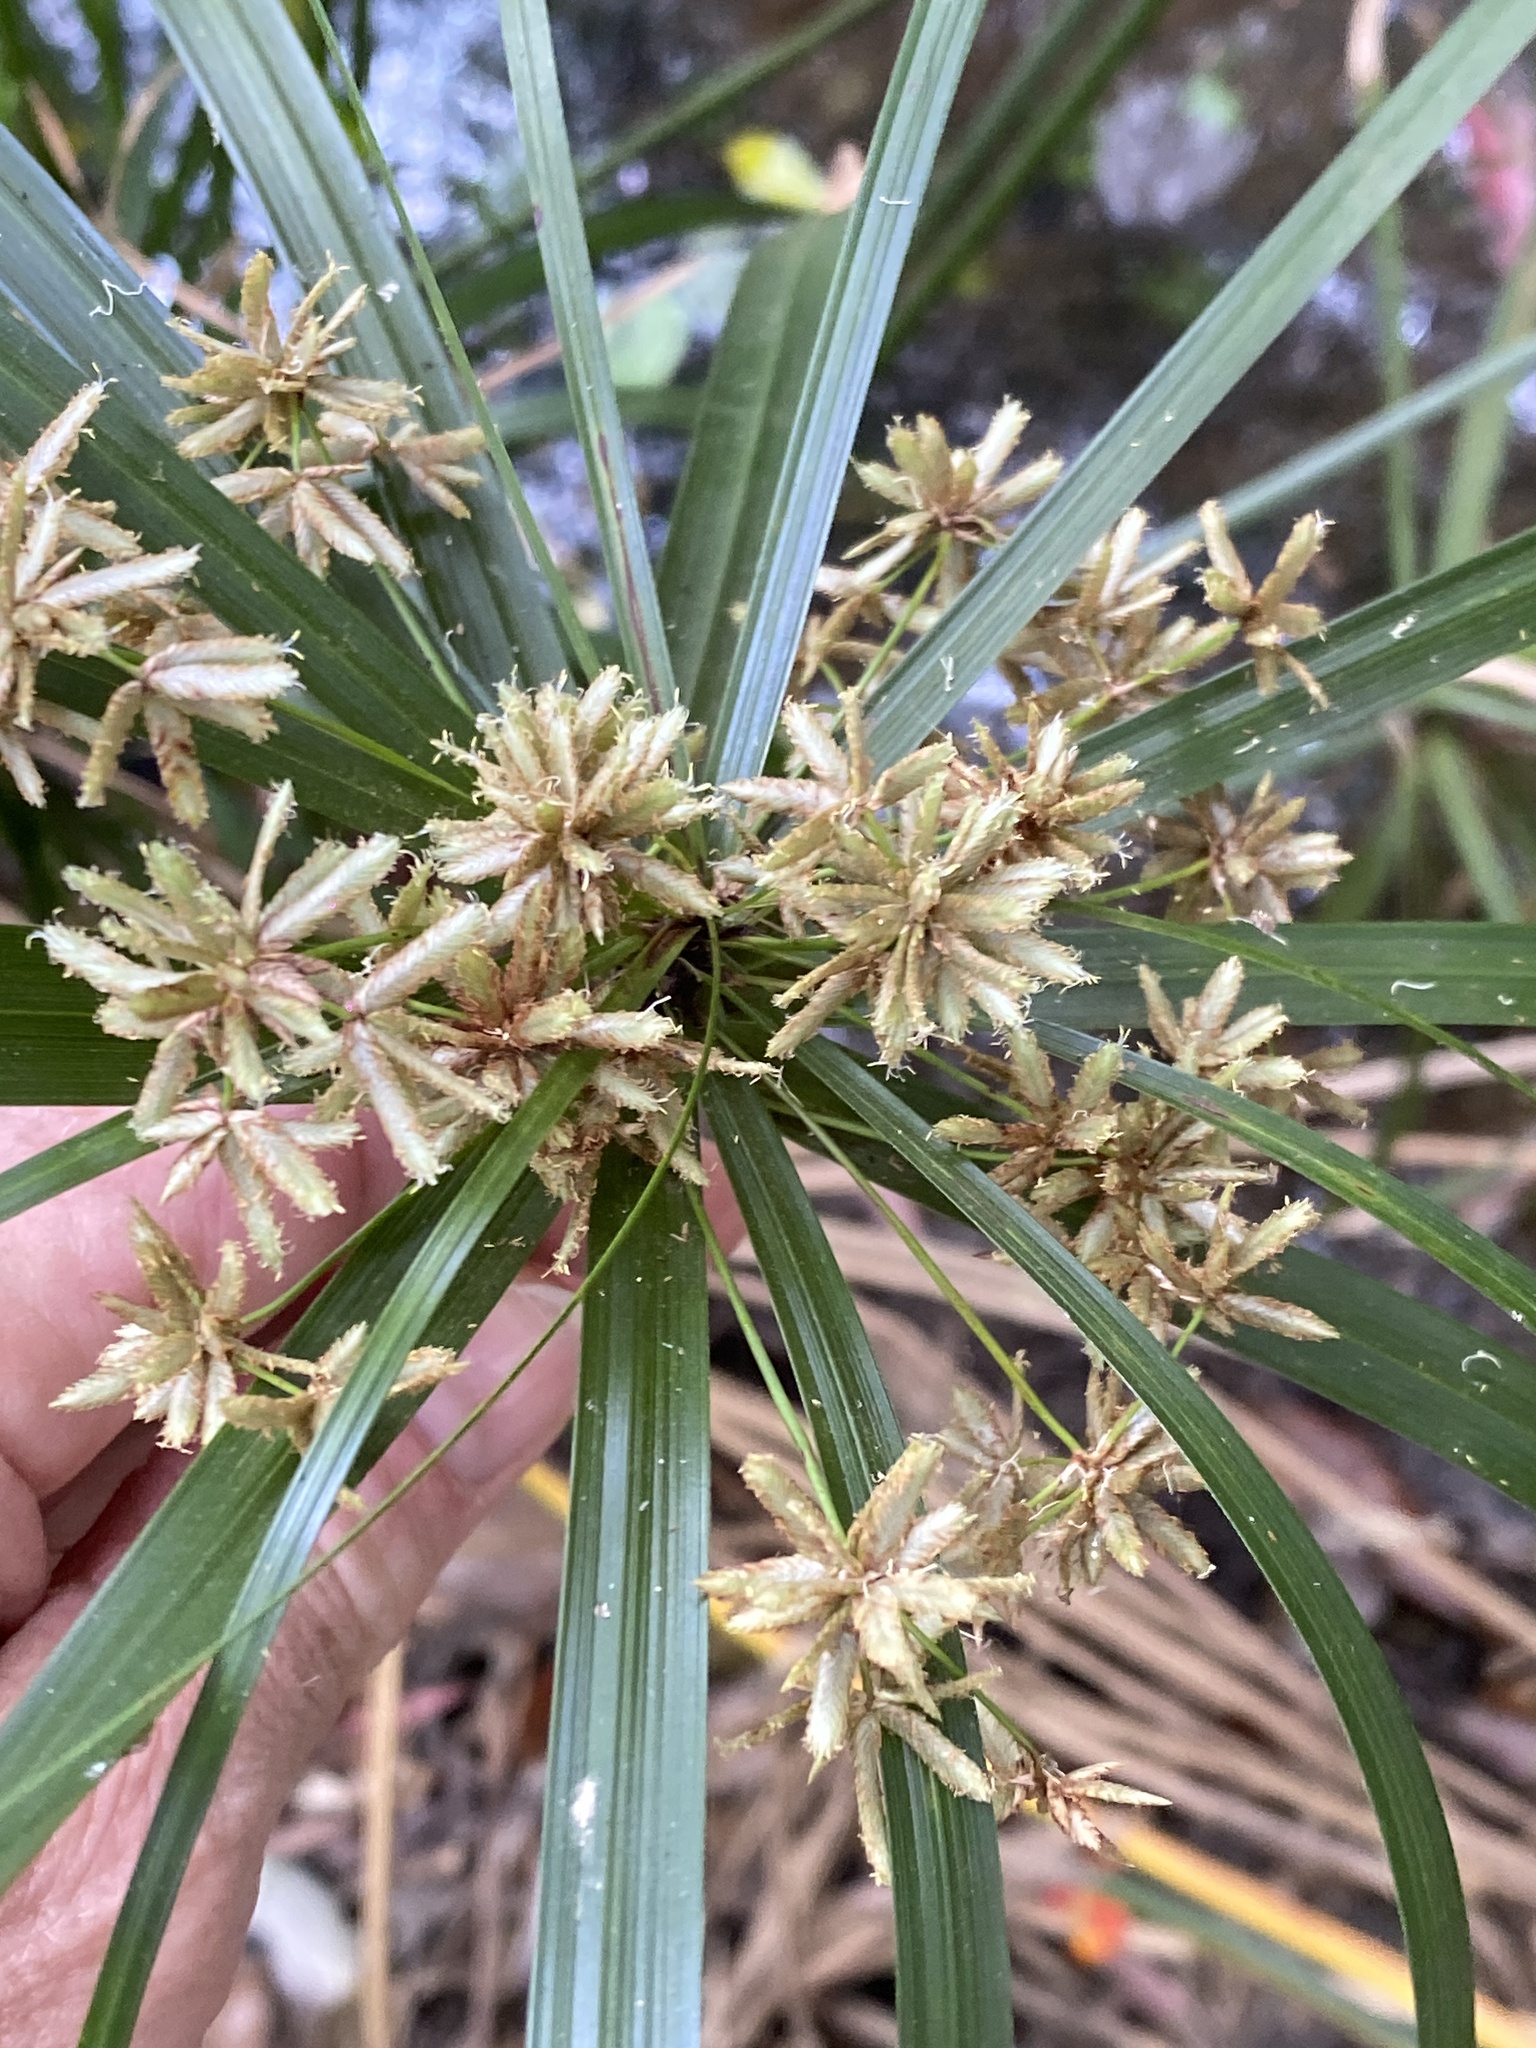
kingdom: Plantae
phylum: Tracheophyta
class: Liliopsida
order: Poales
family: Cyperaceae
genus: Cyperus
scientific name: Cyperus alternifolius
